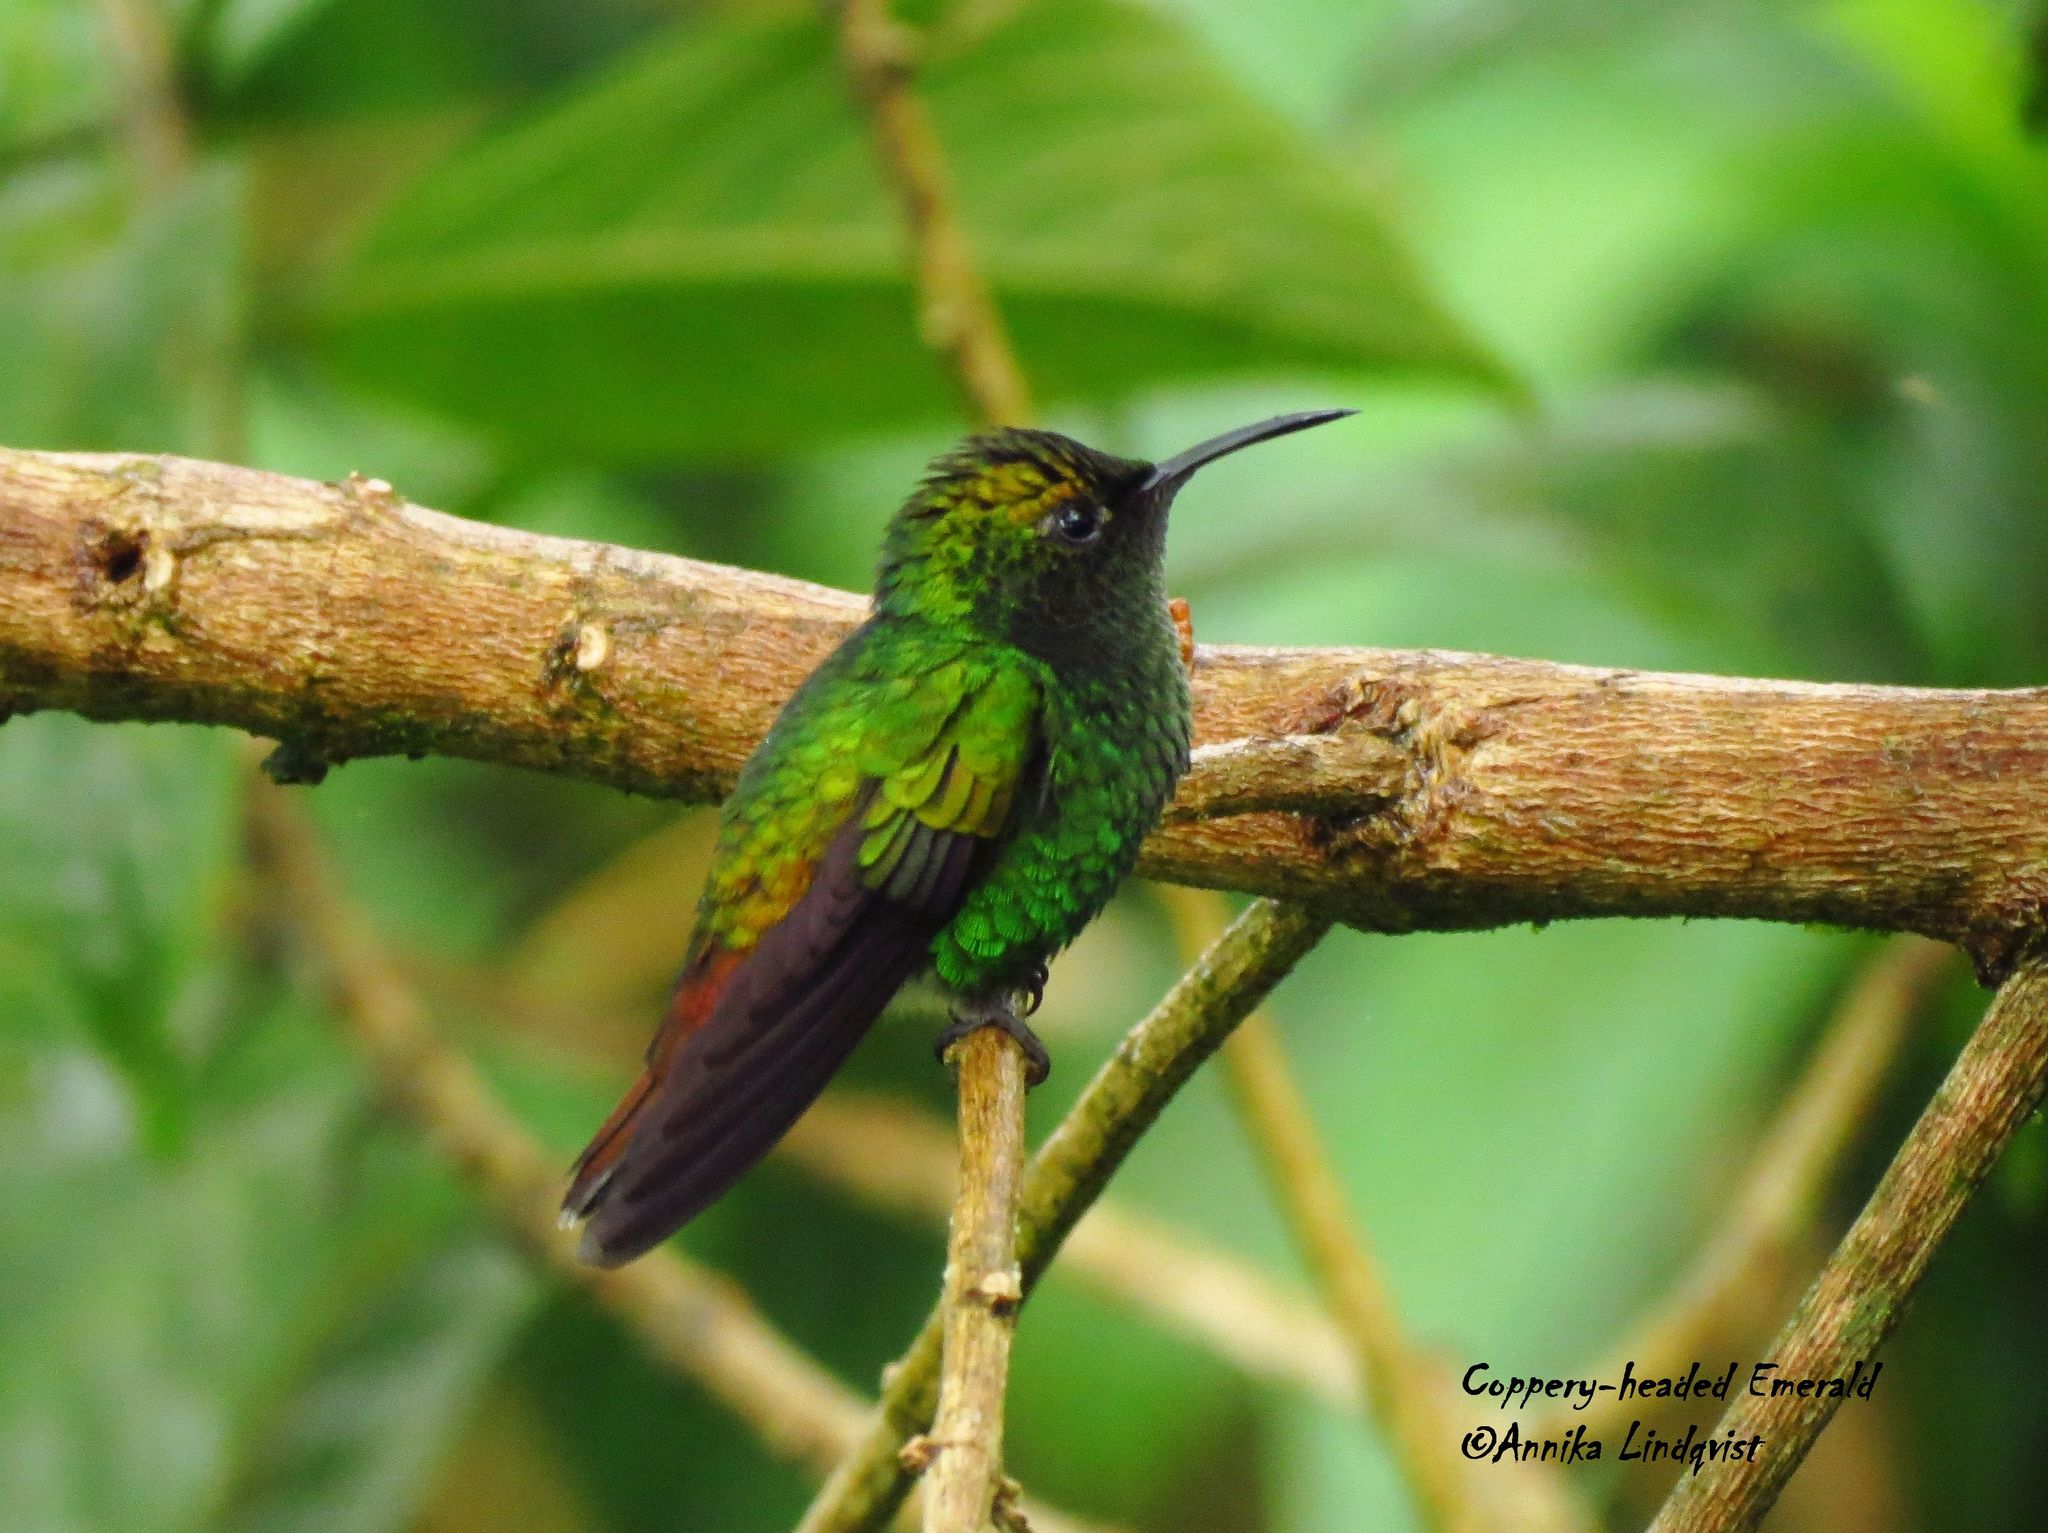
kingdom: Animalia
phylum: Chordata
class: Aves
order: Apodiformes
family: Trochilidae
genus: Microchera
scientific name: Microchera cupreiceps
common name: Coppery-headed emerald
